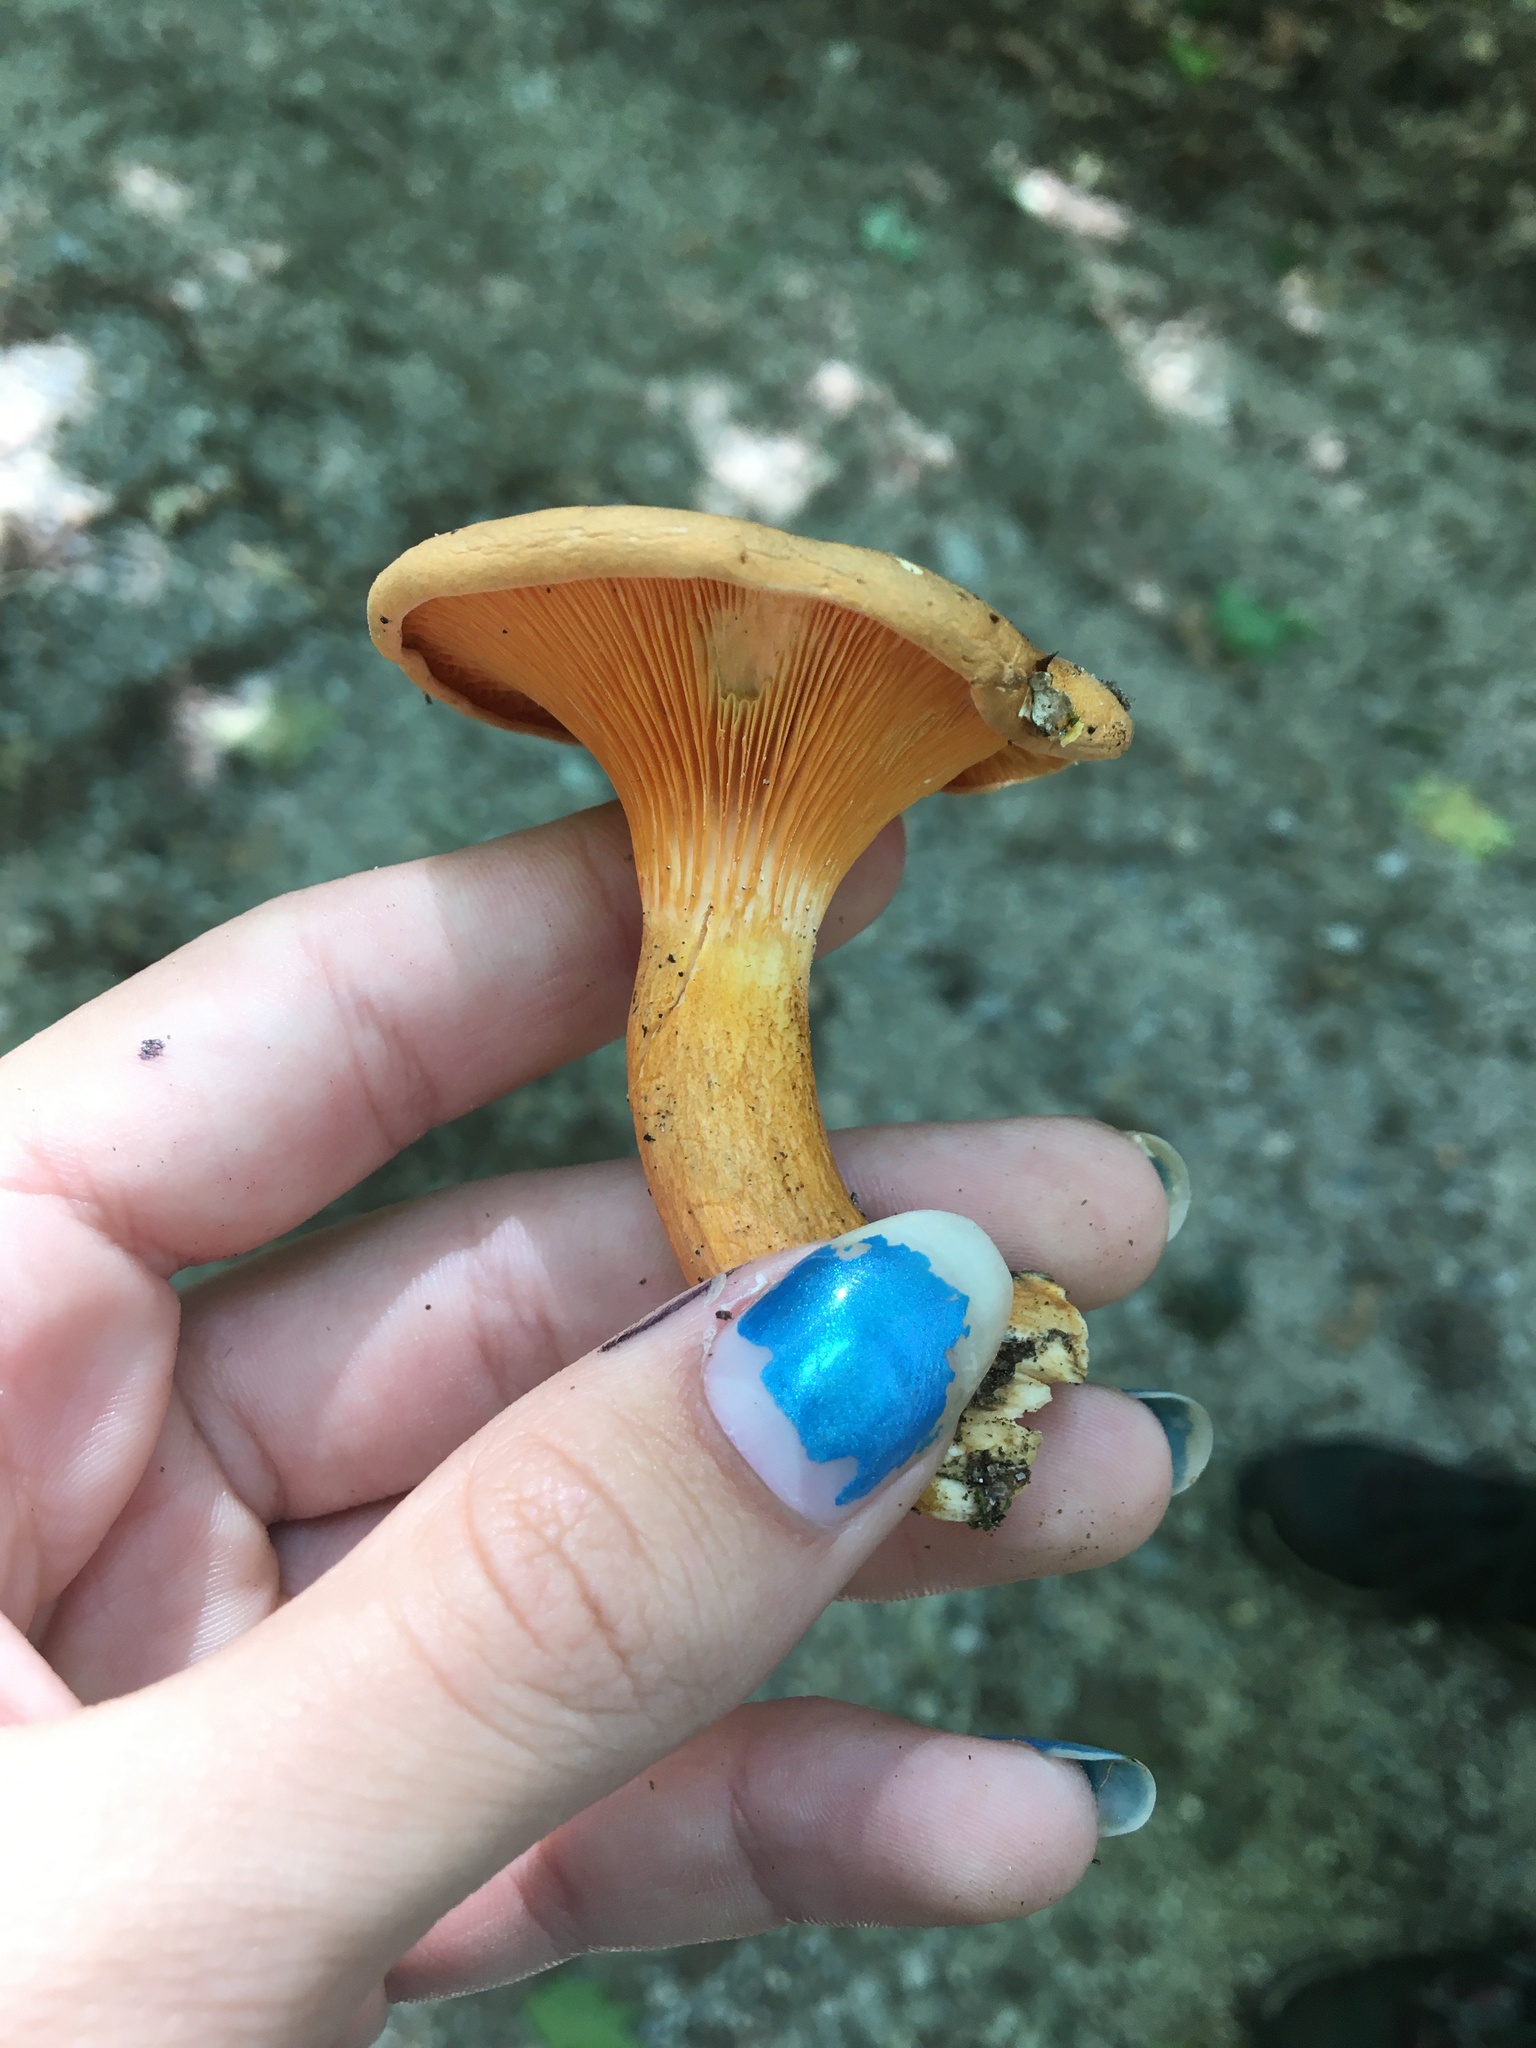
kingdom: Fungi
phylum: Basidiomycota
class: Agaricomycetes
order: Boletales
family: Hygrophoropsidaceae
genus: Hygrophoropsis
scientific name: Hygrophoropsis aurantiaca
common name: False chanterelle
